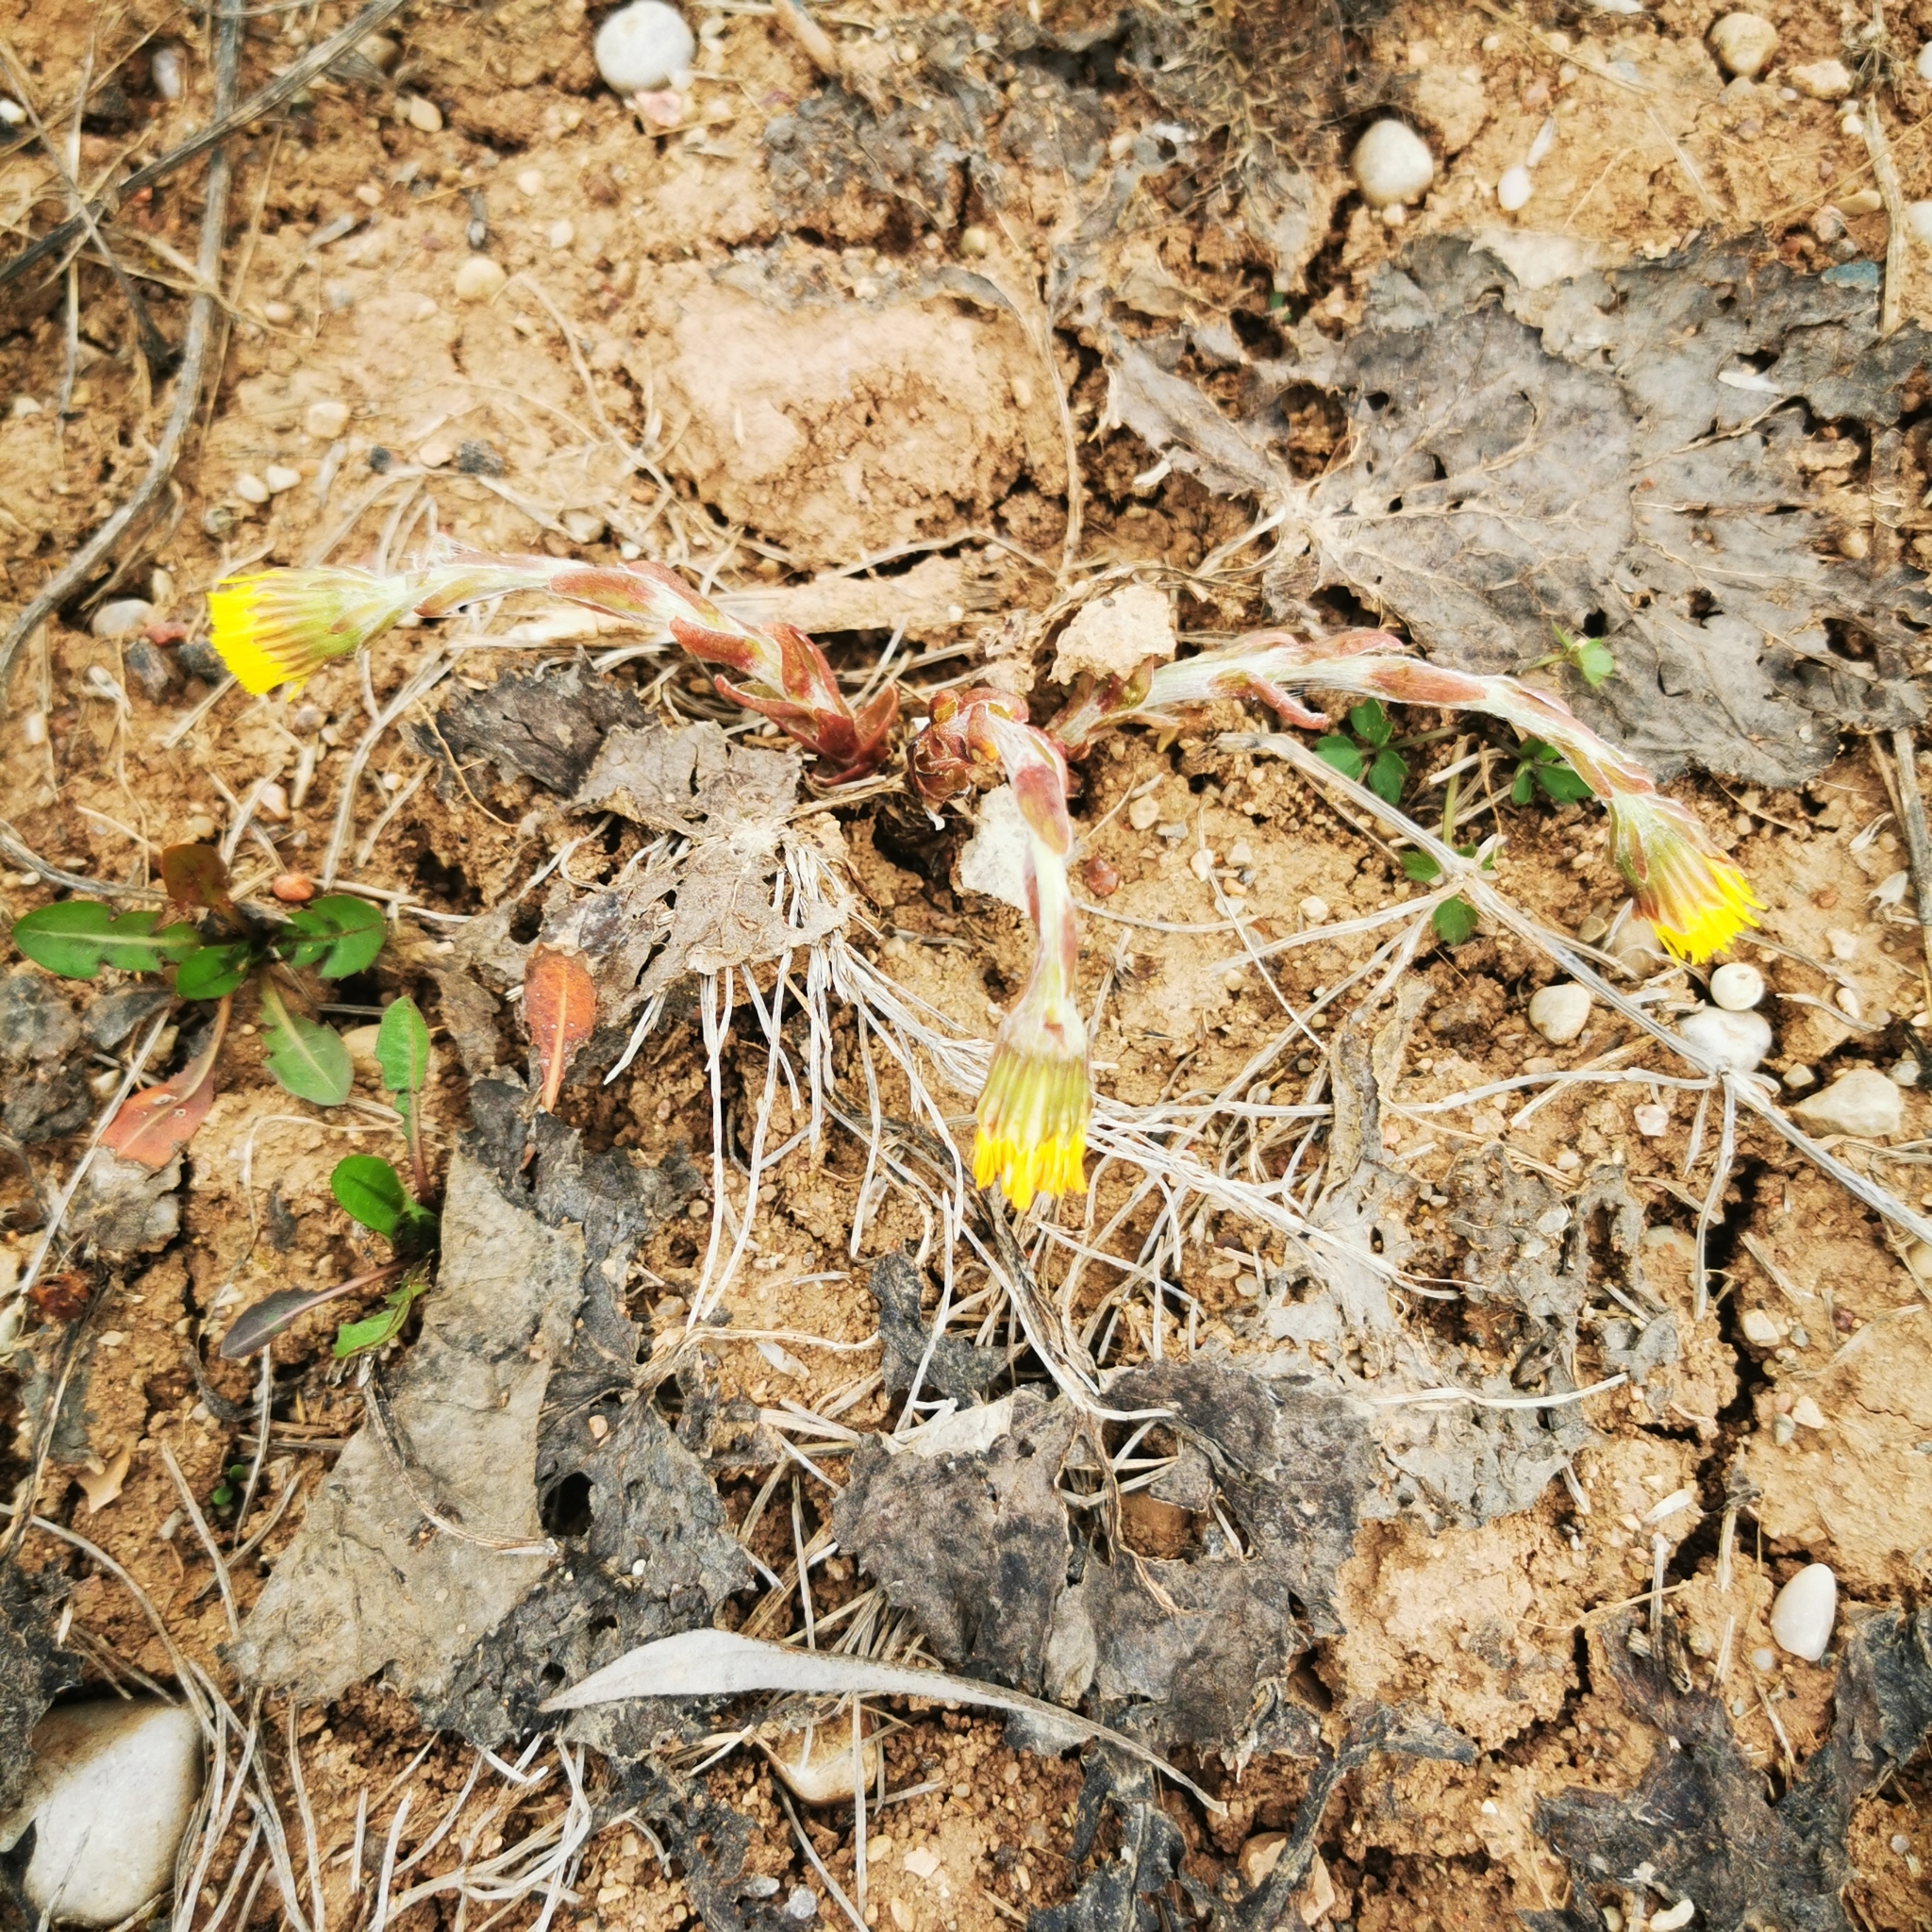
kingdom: Plantae
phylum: Tracheophyta
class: Magnoliopsida
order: Asterales
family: Asteraceae
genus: Tussilago
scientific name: Tussilago farfara
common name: Coltsfoot
